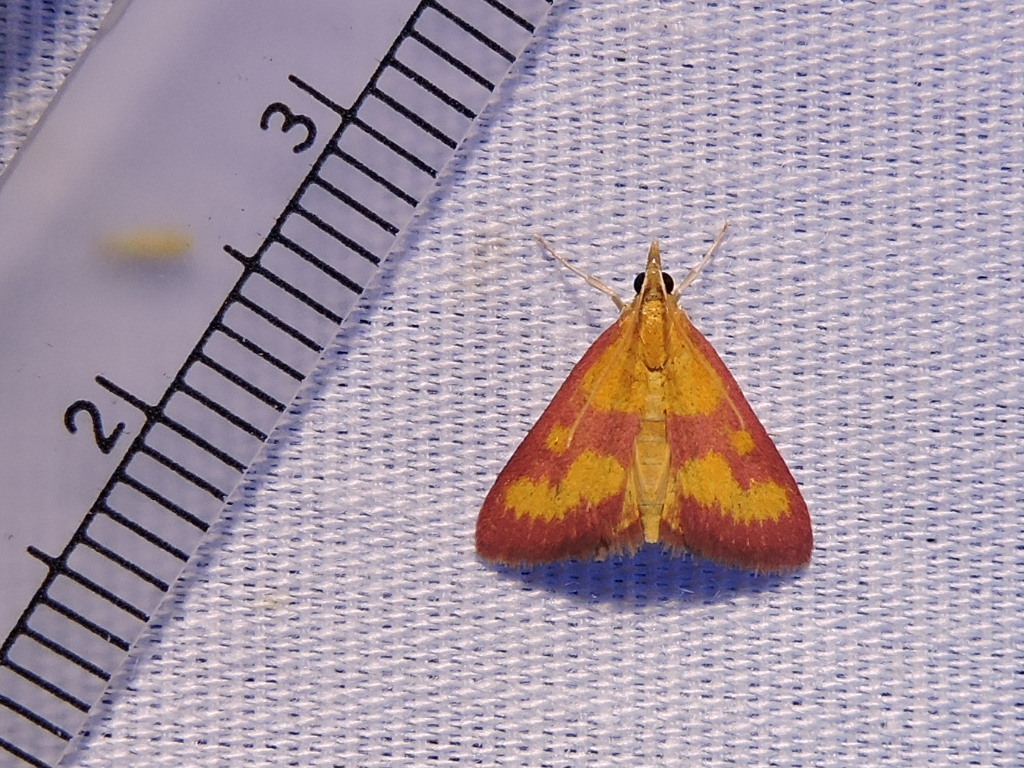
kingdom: Animalia
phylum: Arthropoda
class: Insecta
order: Lepidoptera
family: Crambidae
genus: Pyrausta
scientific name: Pyrausta laticlavia
